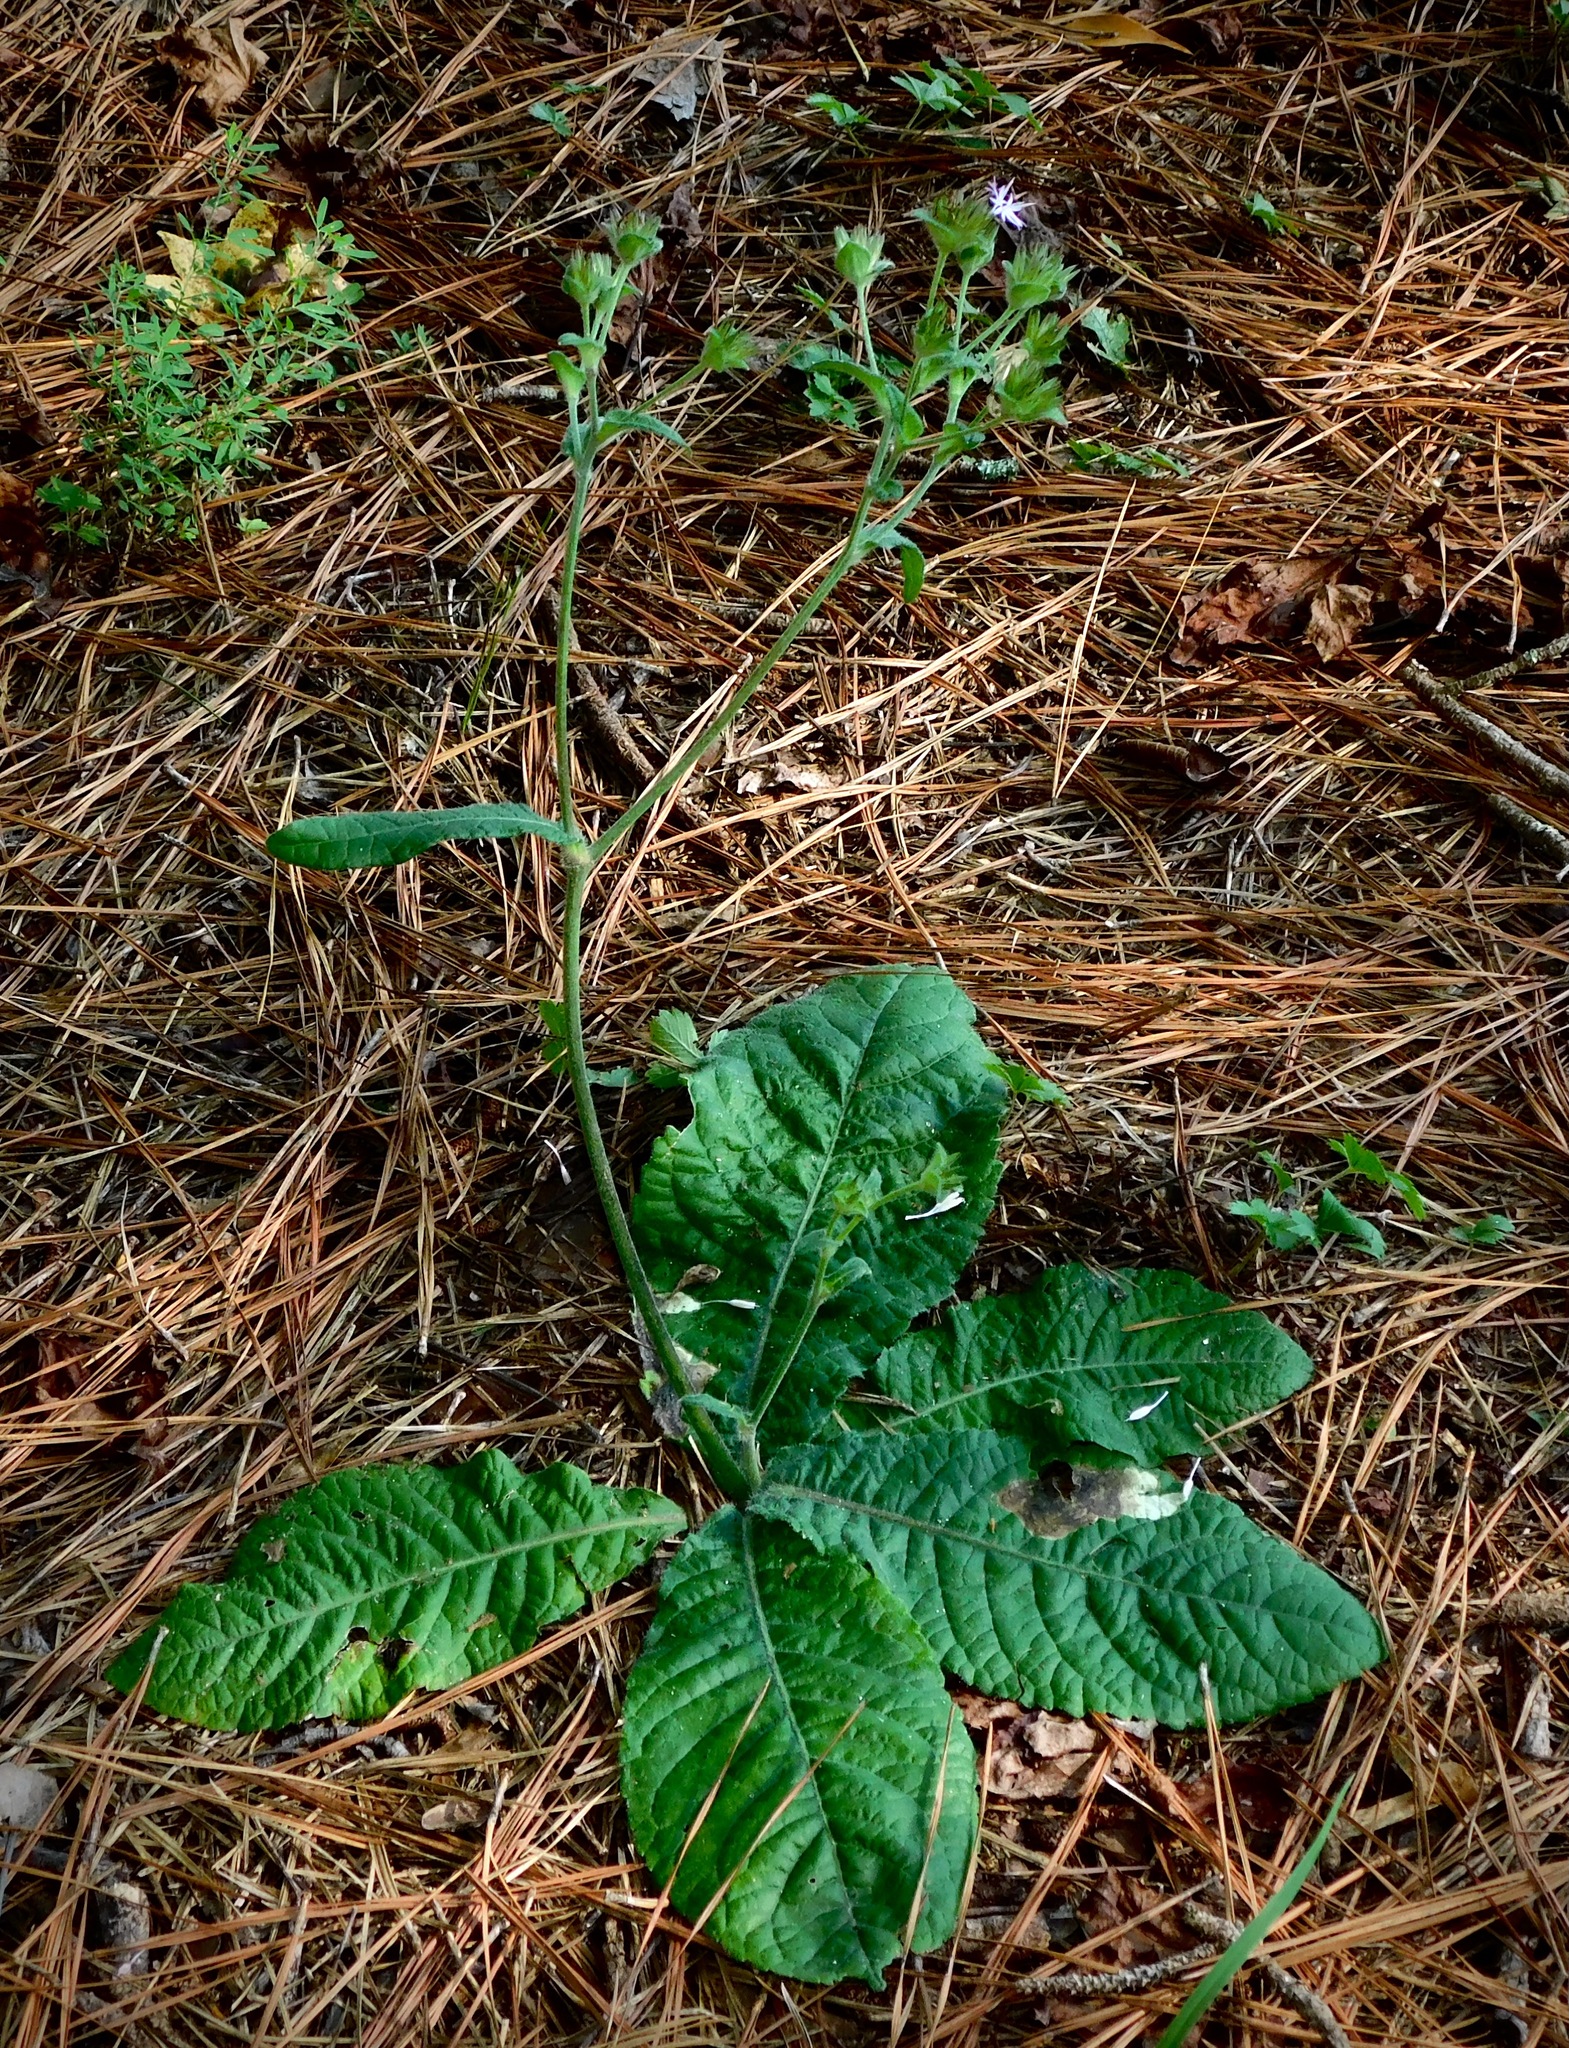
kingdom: Plantae
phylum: Tracheophyta
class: Magnoliopsida
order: Asterales
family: Asteraceae
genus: Elephantopus
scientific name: Elephantopus tomentosus
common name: Tobacco-weed
